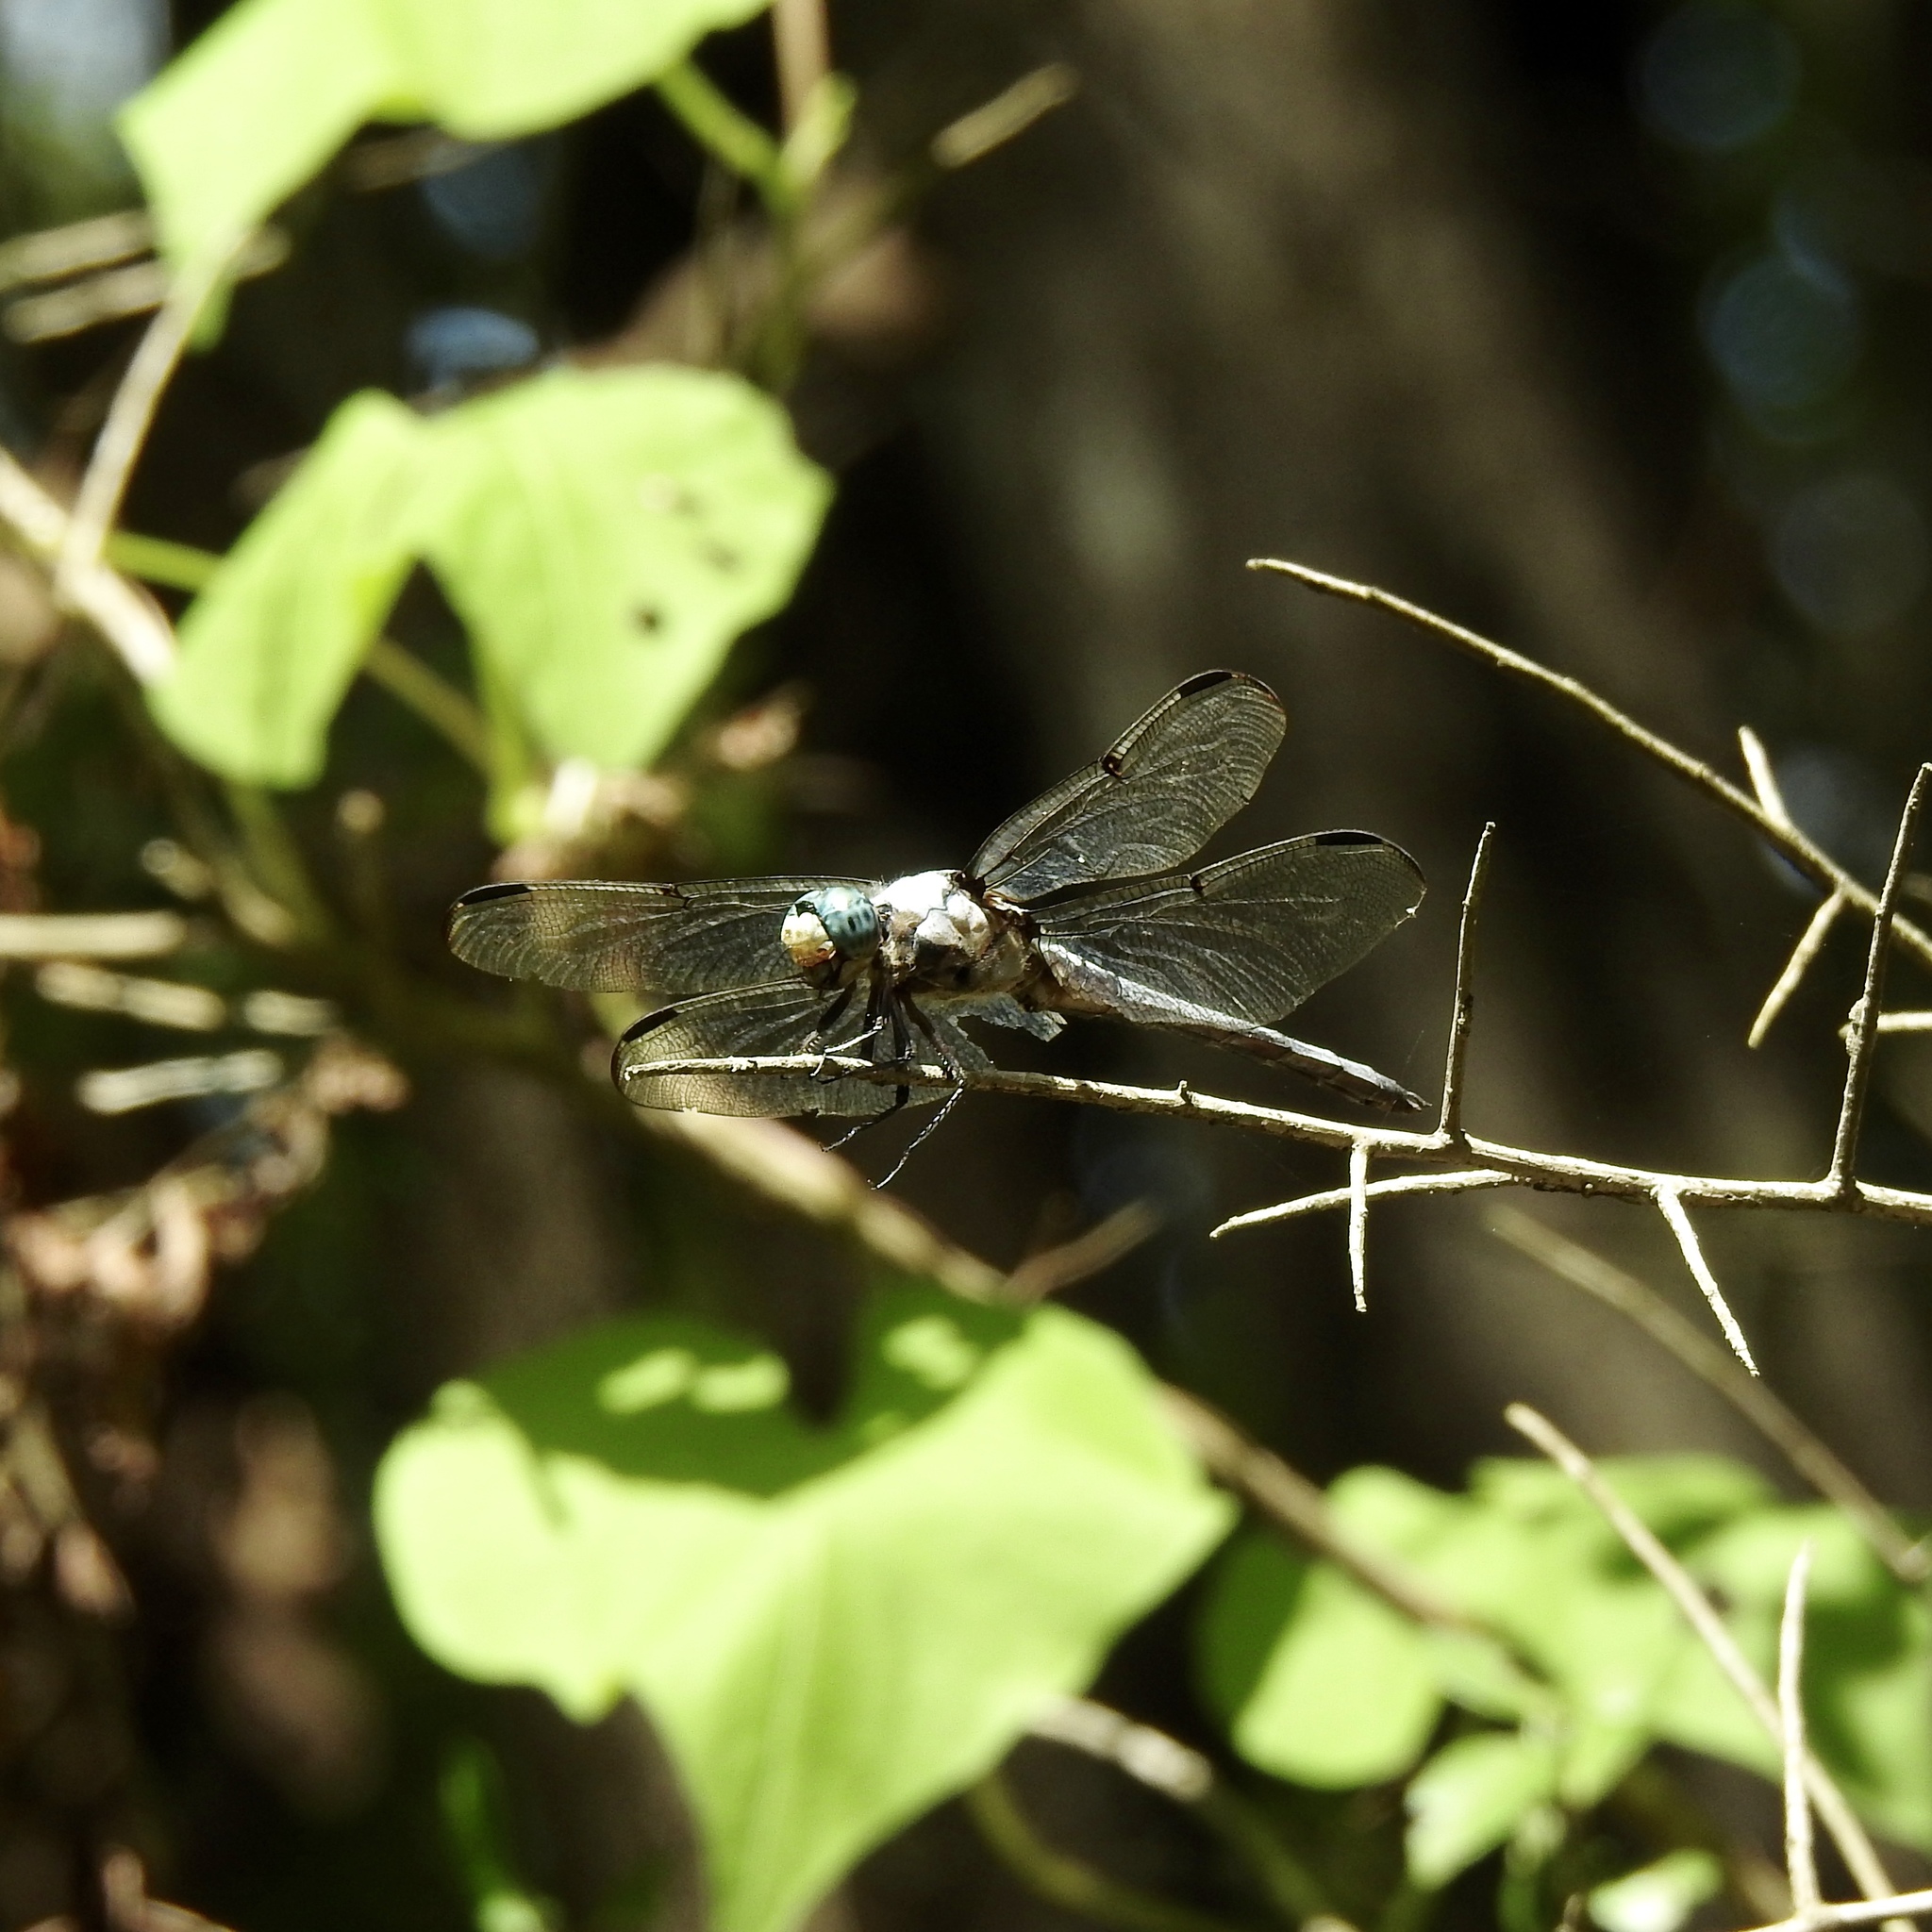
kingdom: Animalia
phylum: Arthropoda
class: Insecta
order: Odonata
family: Libellulidae
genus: Libellula
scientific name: Libellula vibrans
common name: Great blue skimmer
